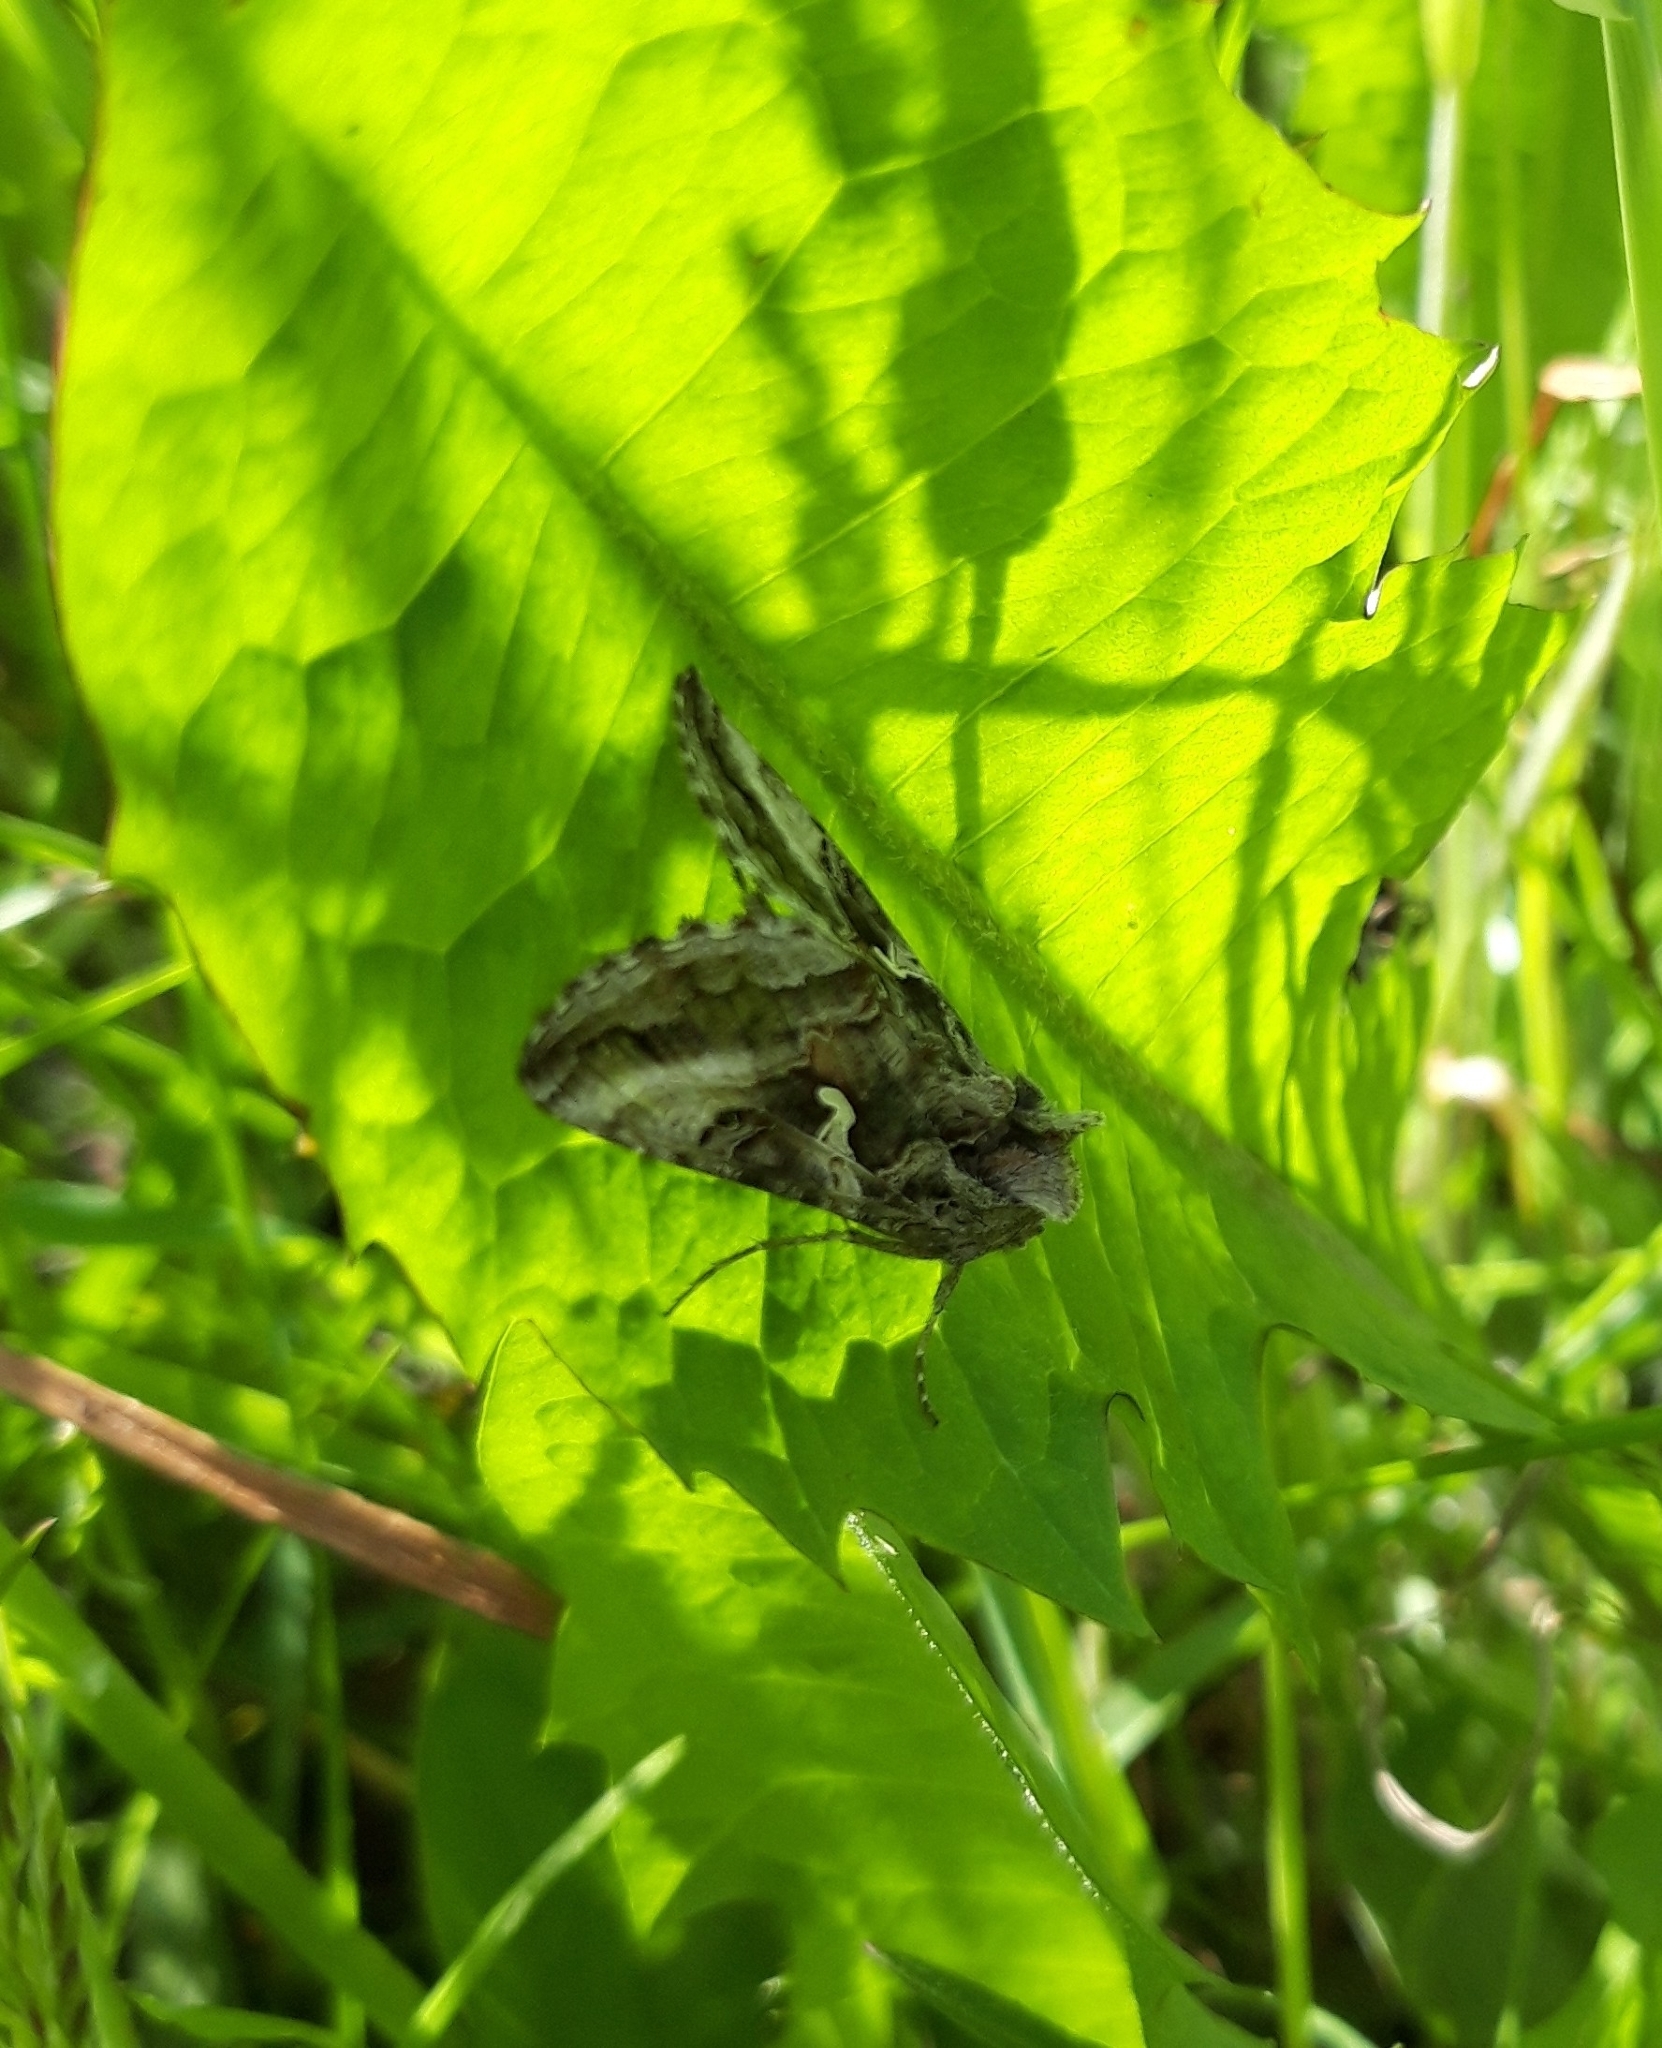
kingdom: Animalia
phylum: Arthropoda
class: Insecta
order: Lepidoptera
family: Noctuidae
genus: Autographa
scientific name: Autographa gamma
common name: Silver y
